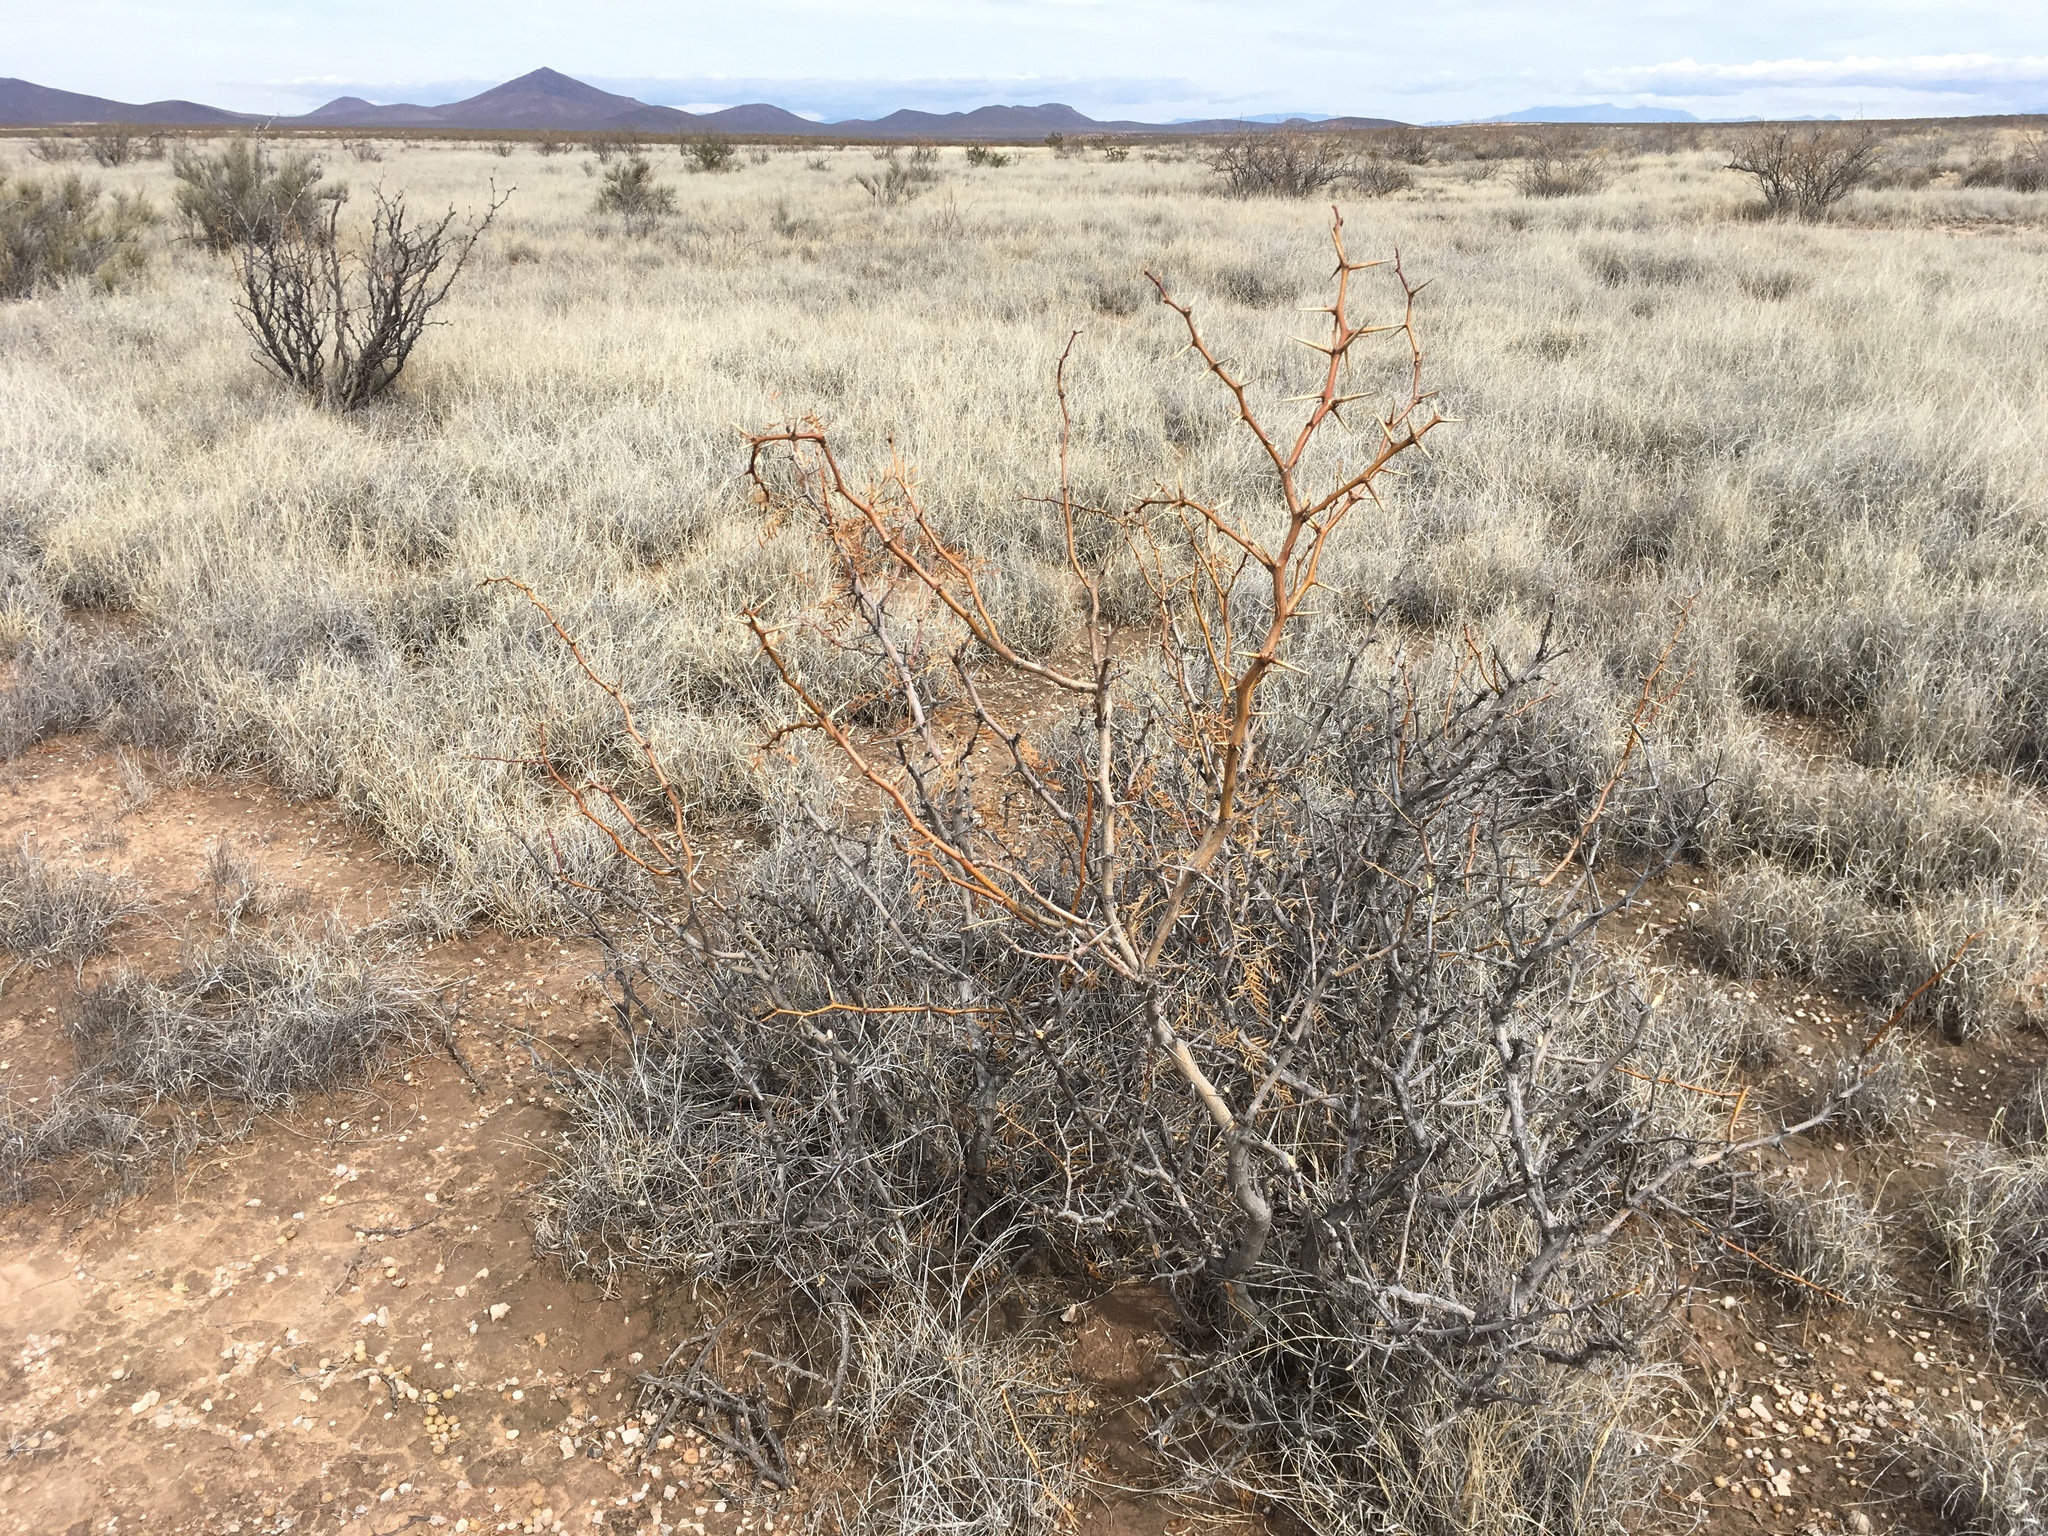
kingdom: Plantae
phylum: Tracheophyta
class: Magnoliopsida
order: Fabales
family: Fabaceae
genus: Prosopis
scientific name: Prosopis glandulosa
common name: Honey mesquite
